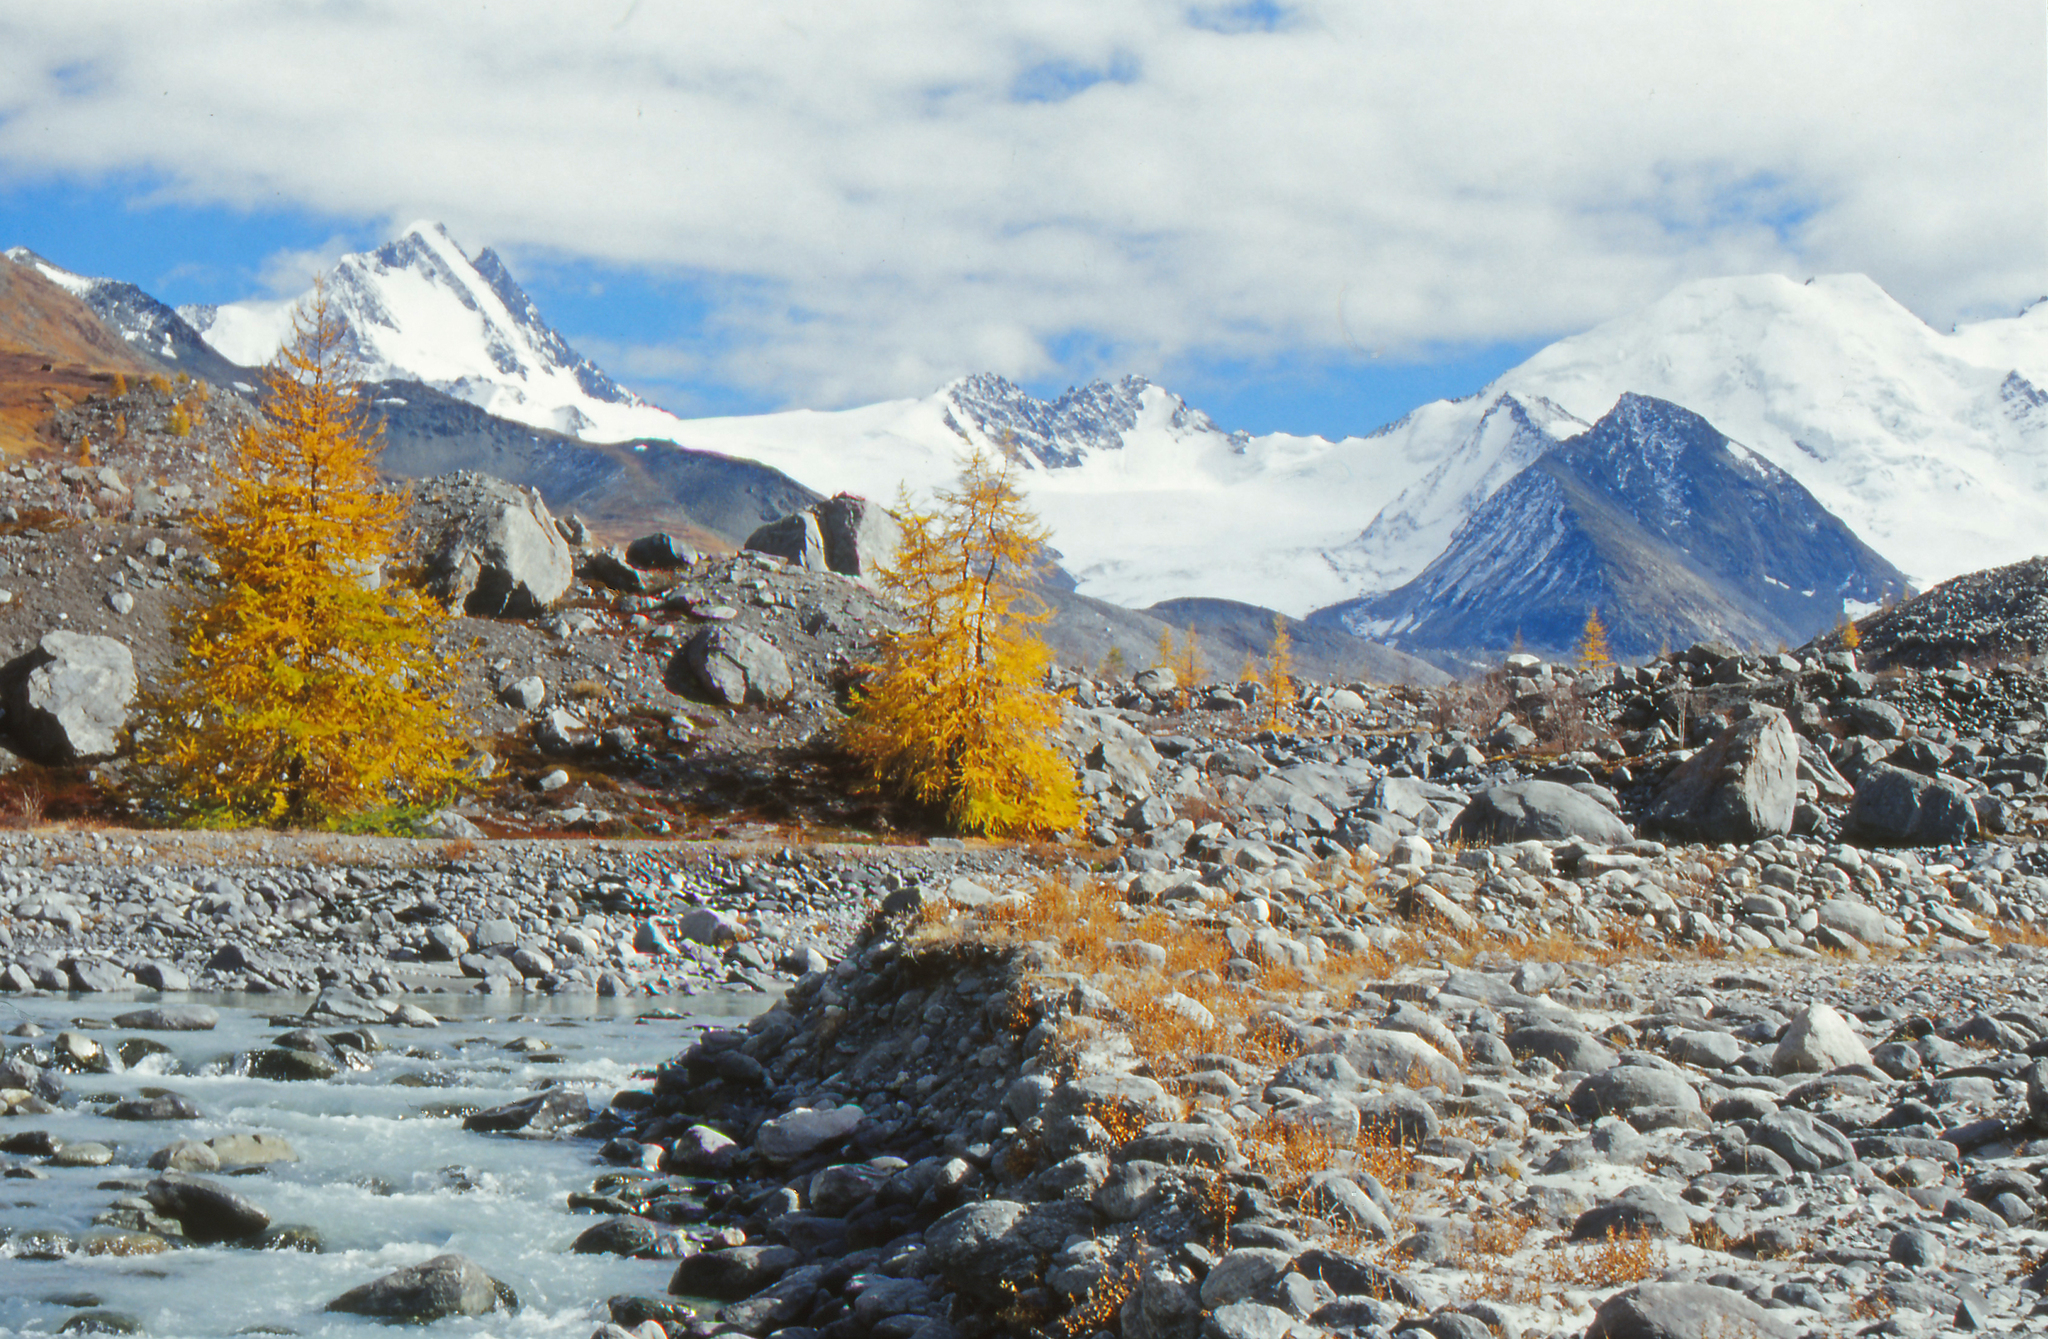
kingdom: Plantae
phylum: Tracheophyta
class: Pinopsida
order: Pinales
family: Pinaceae
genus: Larix
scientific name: Larix sibirica
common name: Siberian larch
